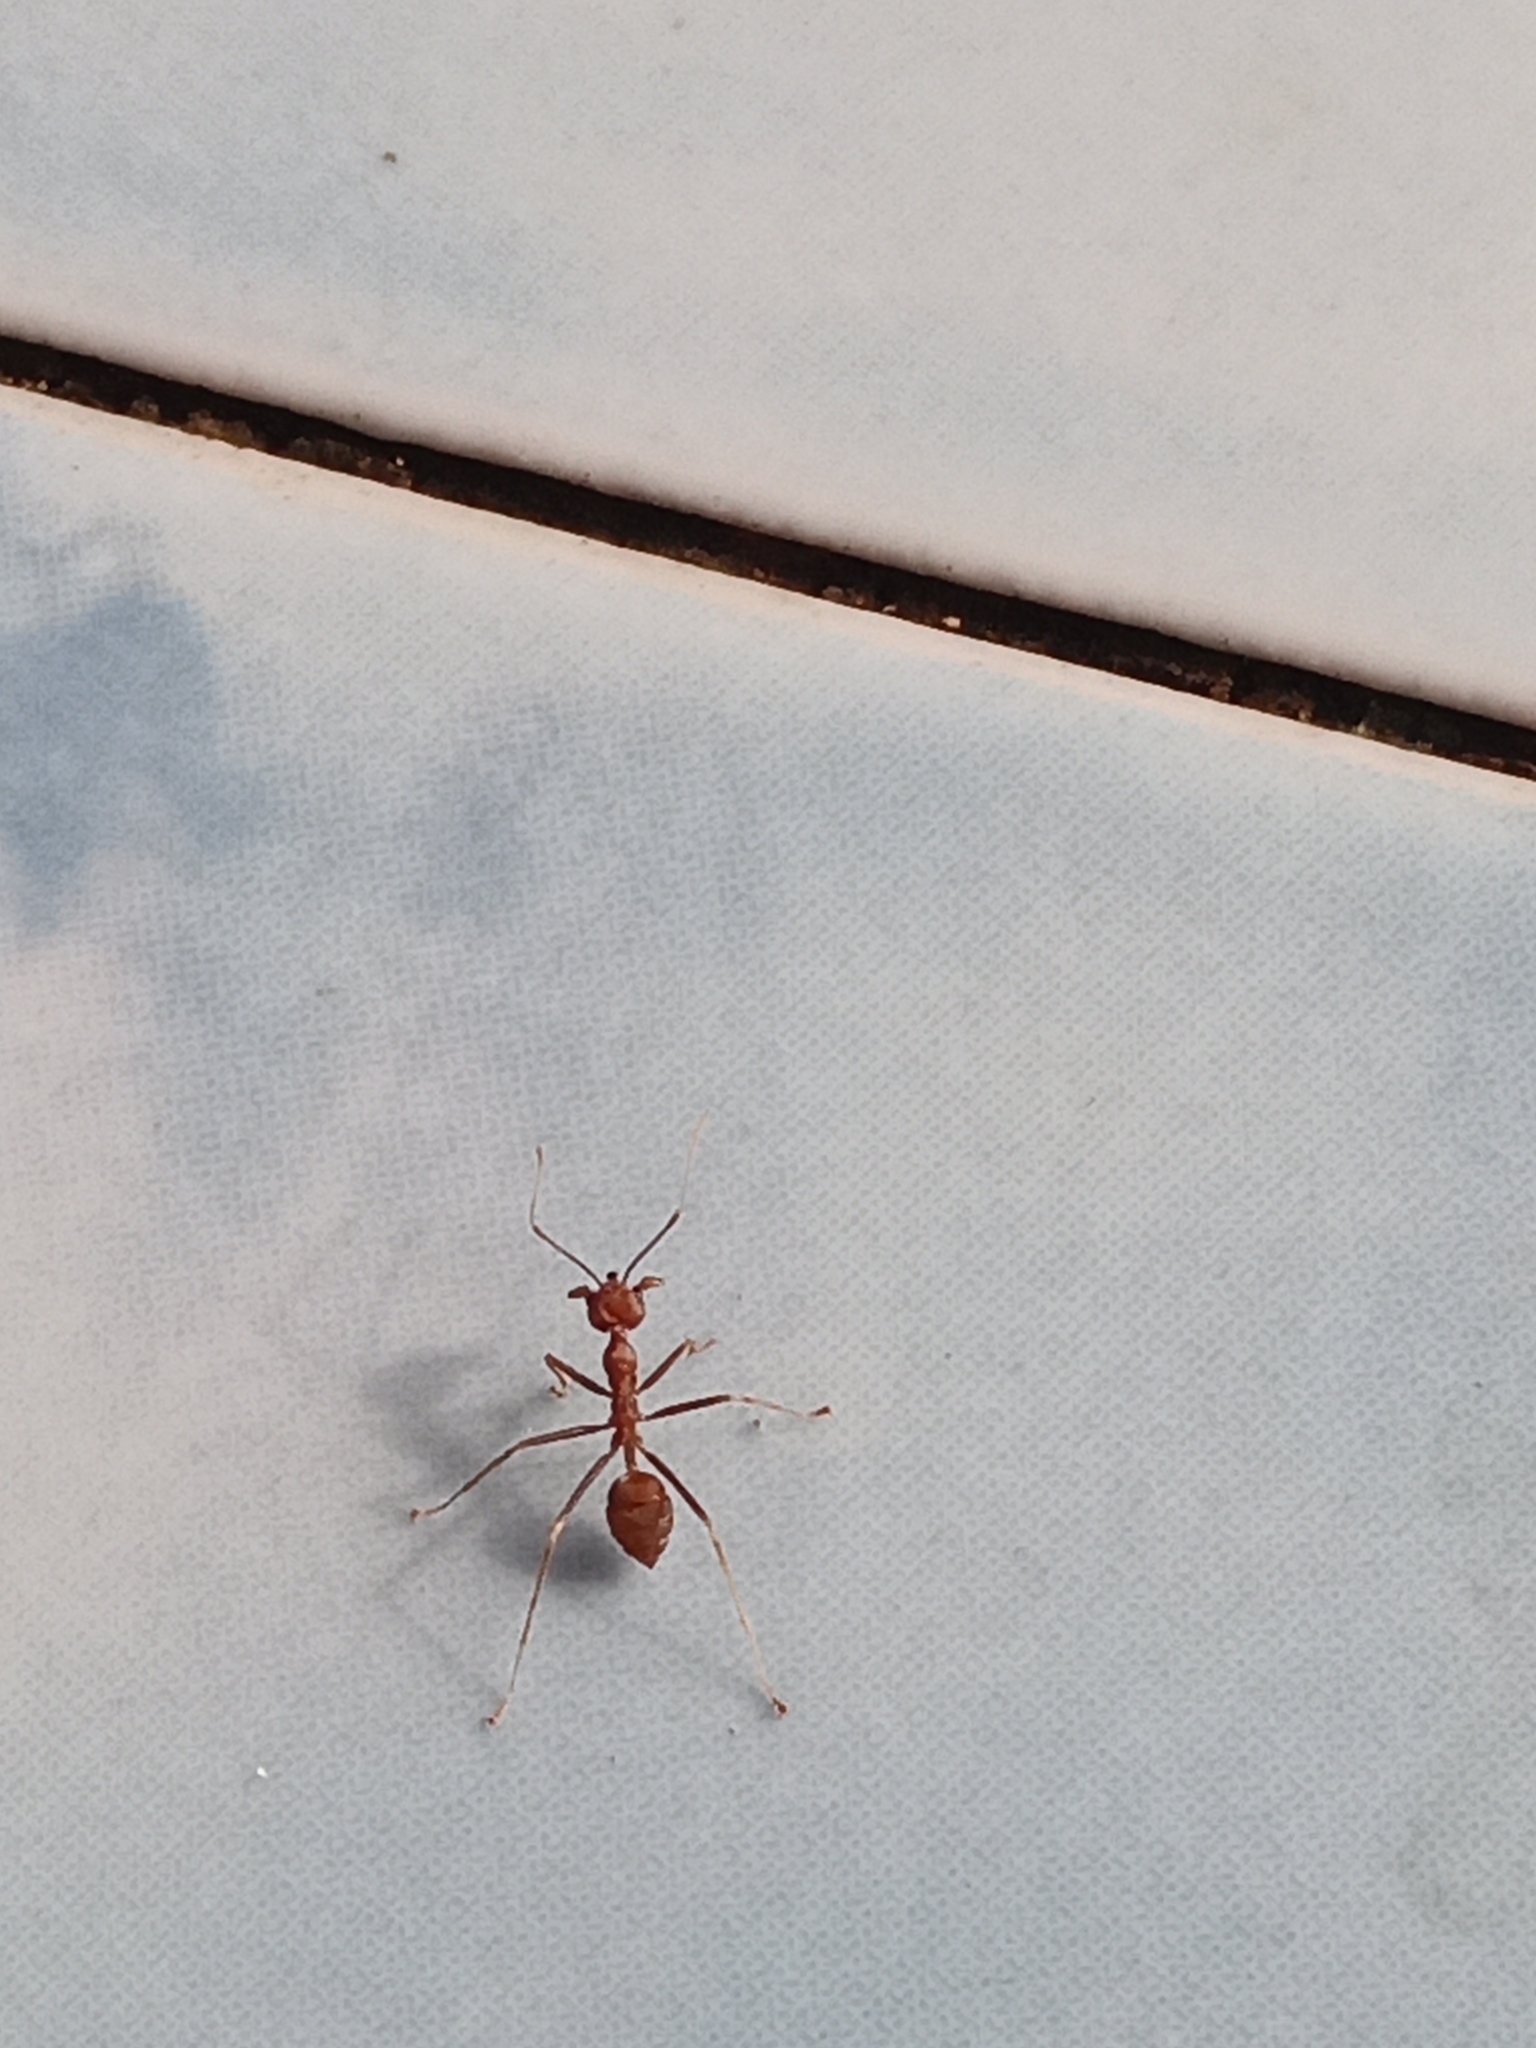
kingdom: Animalia
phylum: Arthropoda
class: Insecta
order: Hymenoptera
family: Formicidae
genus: Oecophylla
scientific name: Oecophylla smaragdina
